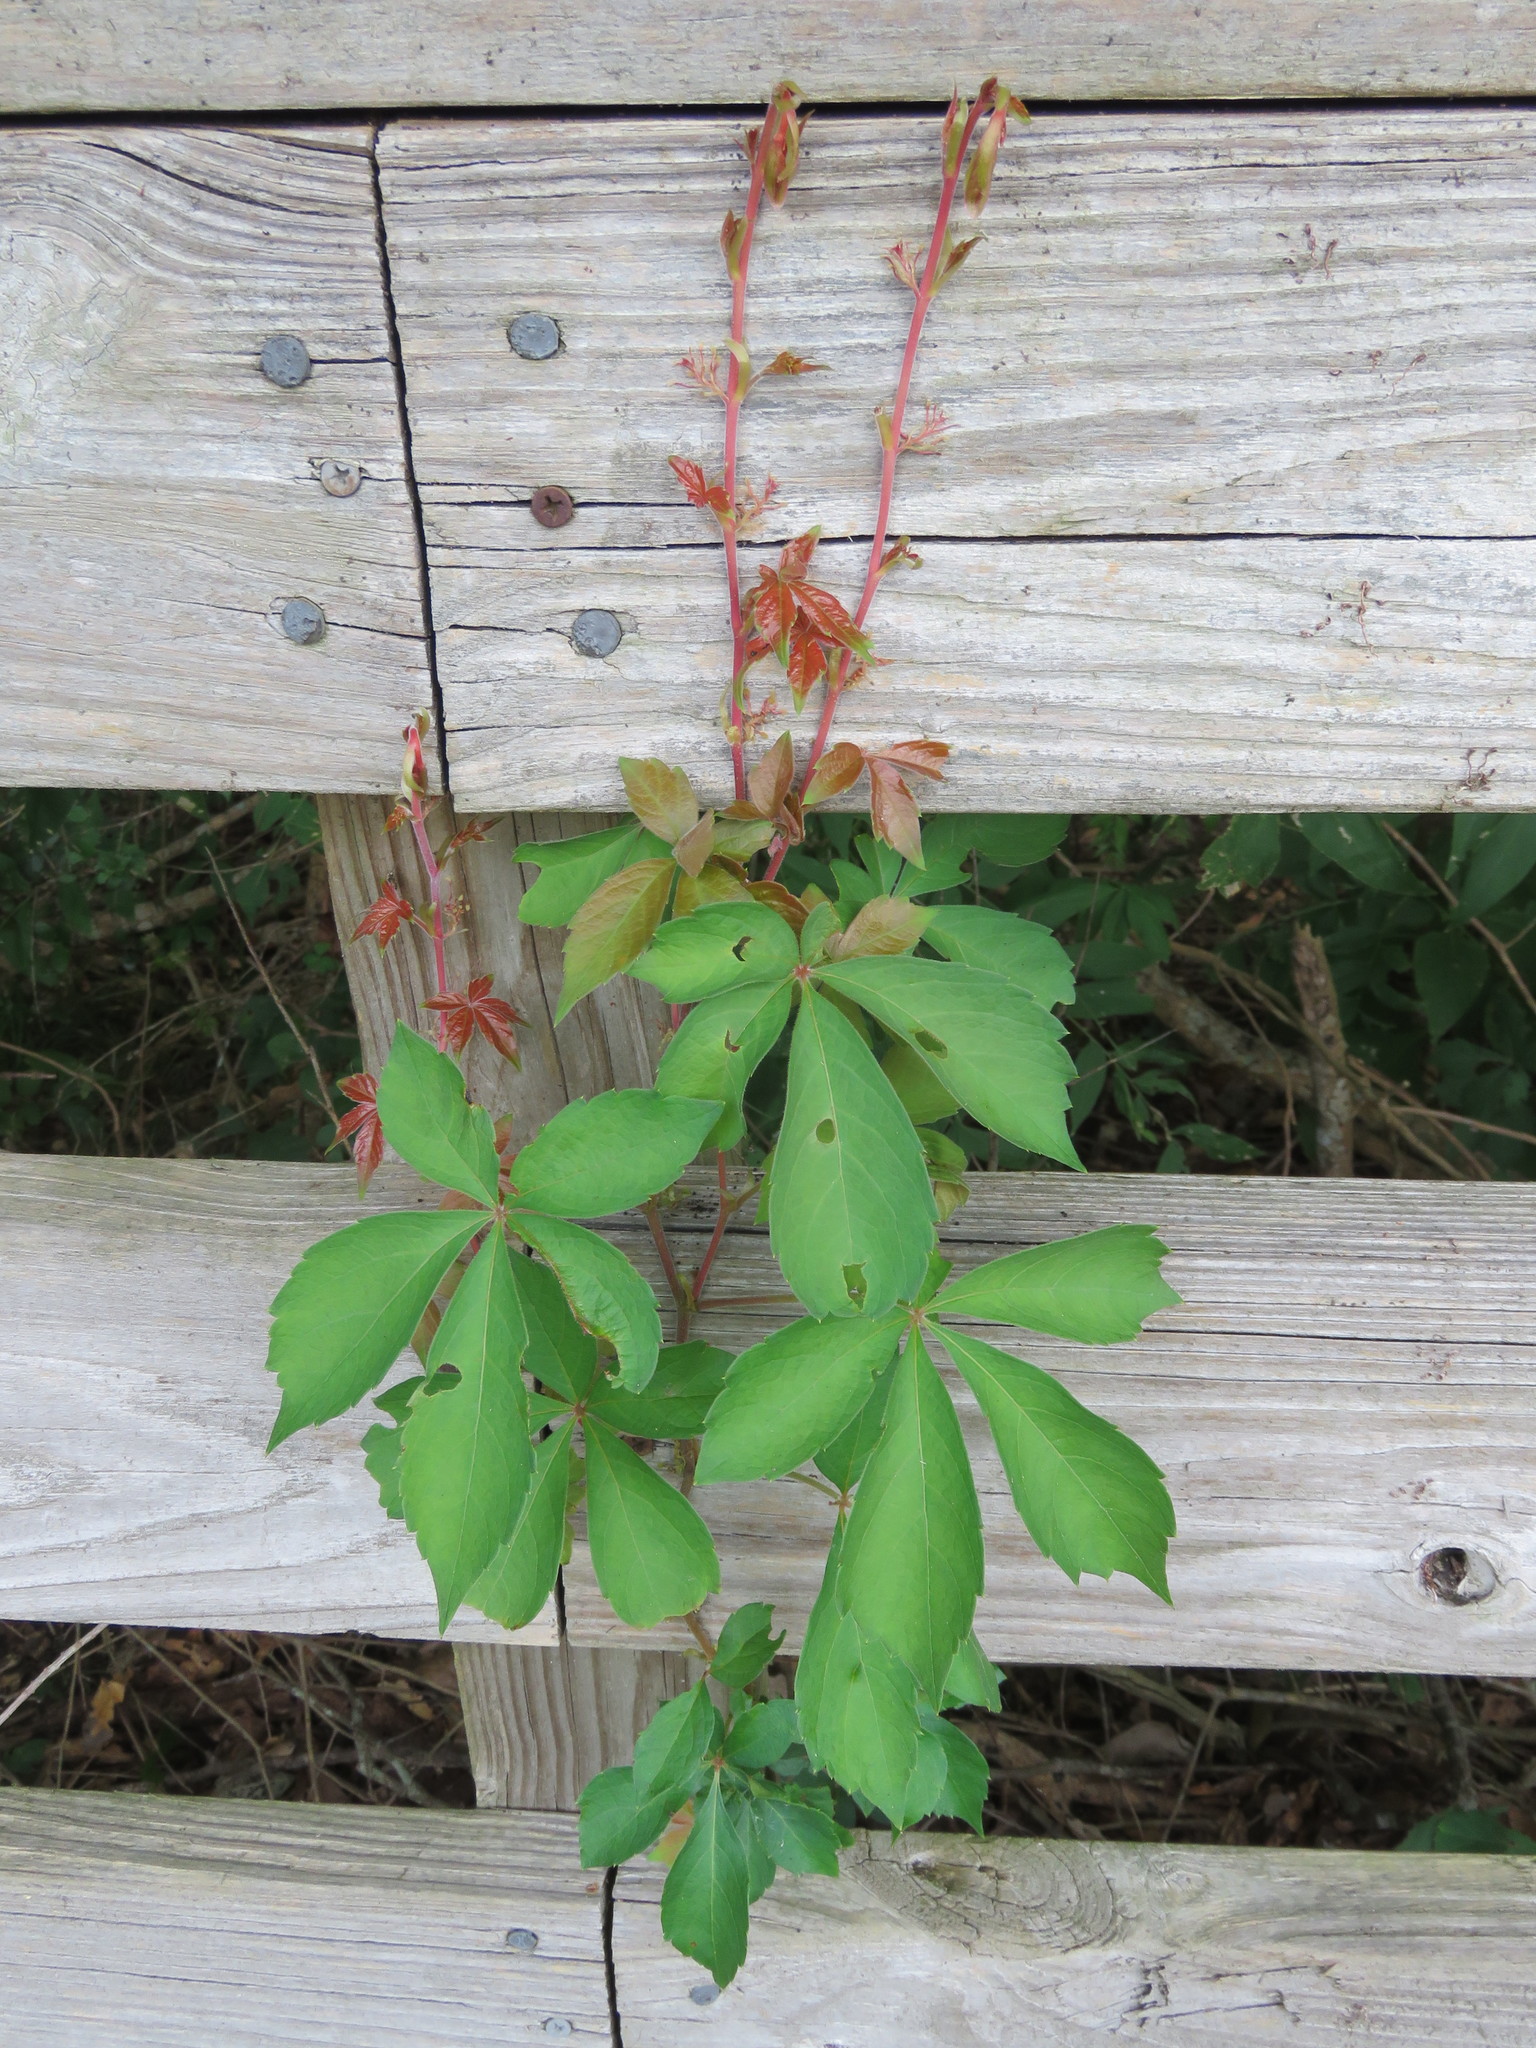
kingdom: Plantae
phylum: Tracheophyta
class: Magnoliopsida
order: Vitales
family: Vitaceae
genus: Parthenocissus
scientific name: Parthenocissus quinquefolia
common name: Virginia-creeper
